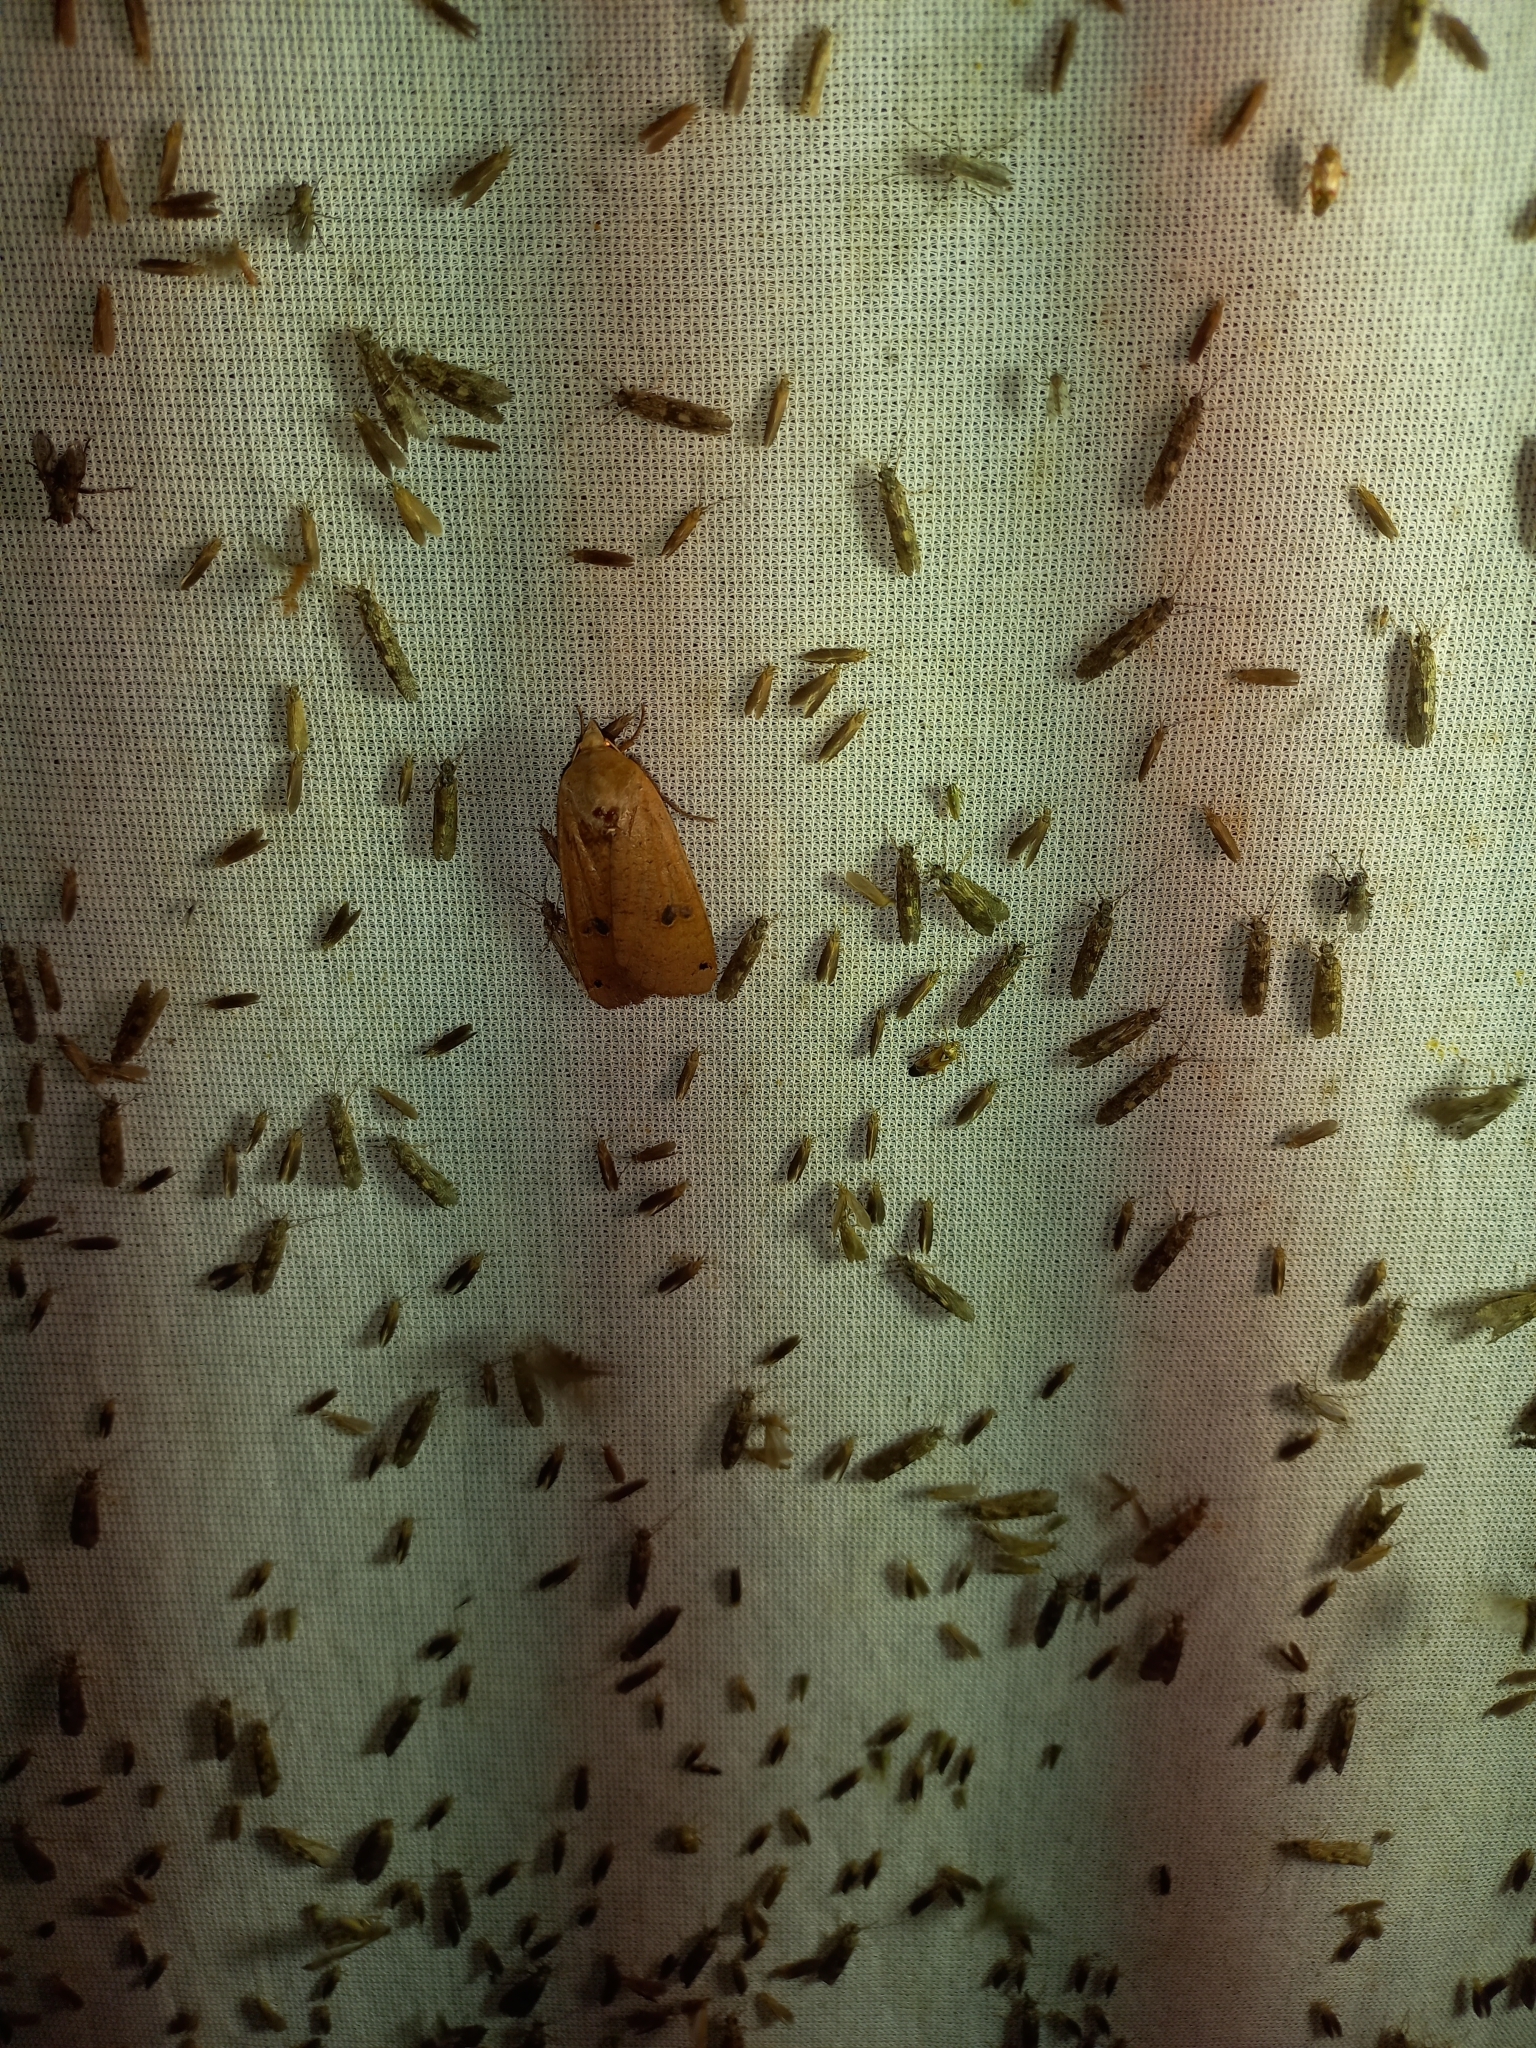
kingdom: Animalia
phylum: Arthropoda
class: Insecta
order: Lepidoptera
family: Noctuidae
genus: Noctua
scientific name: Noctua pronuba
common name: Large yellow underwing
